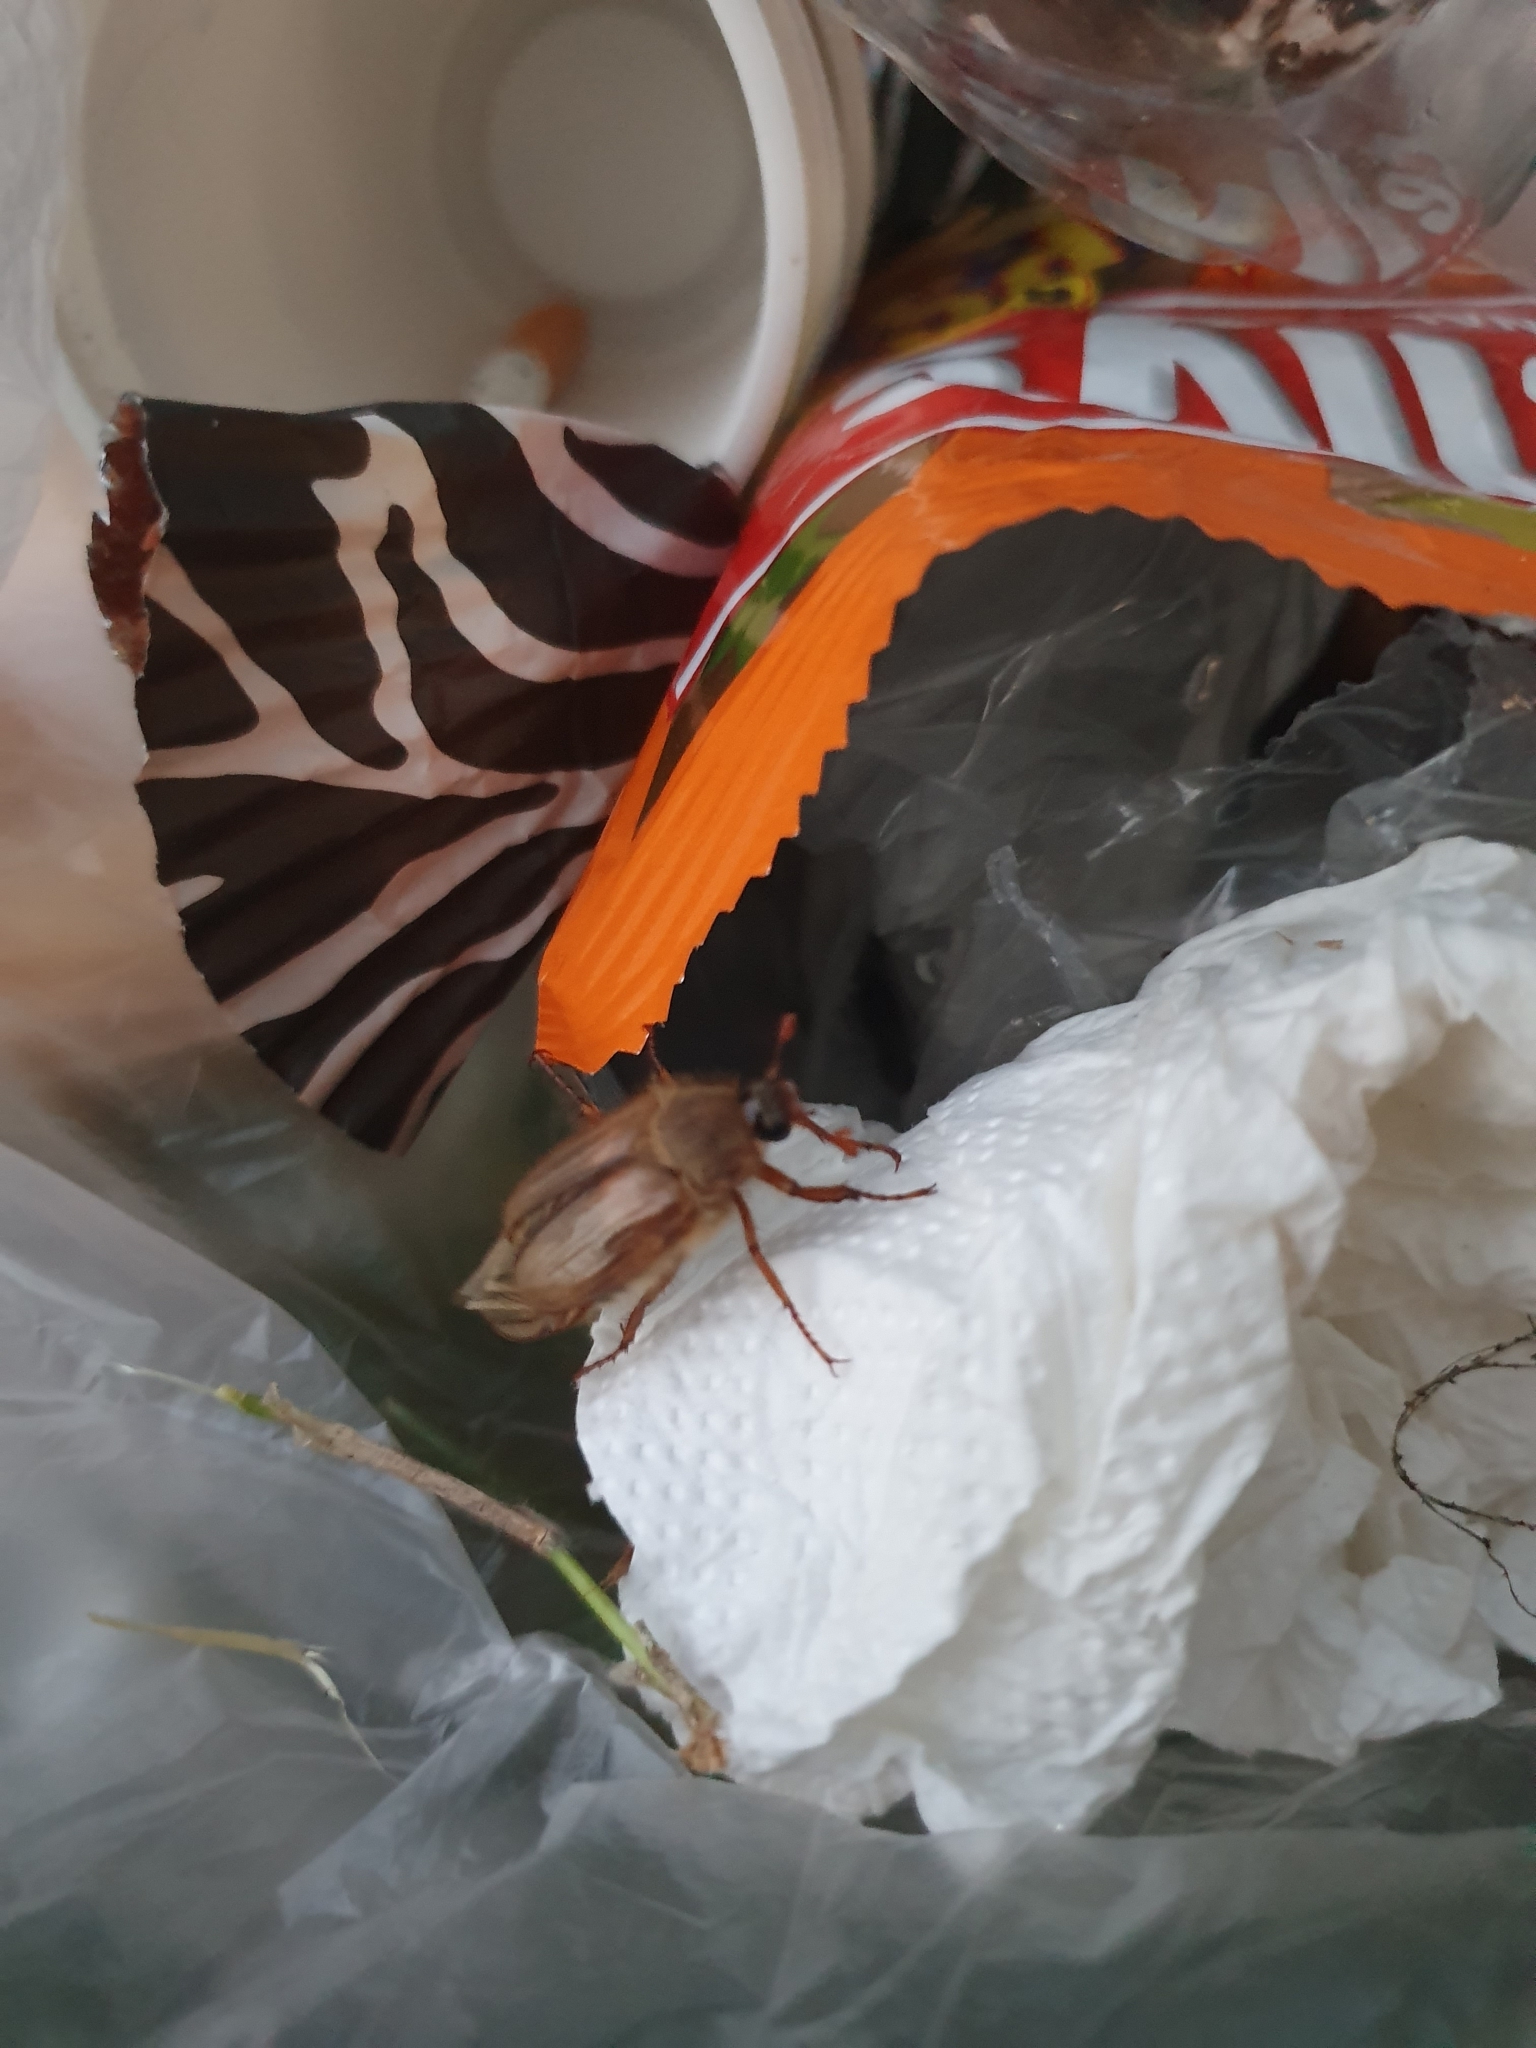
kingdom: Animalia
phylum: Arthropoda
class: Insecta
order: Coleoptera
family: Scarabaeidae
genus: Amphimallon
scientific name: Amphimallon solstitiale
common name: Summer chafer
